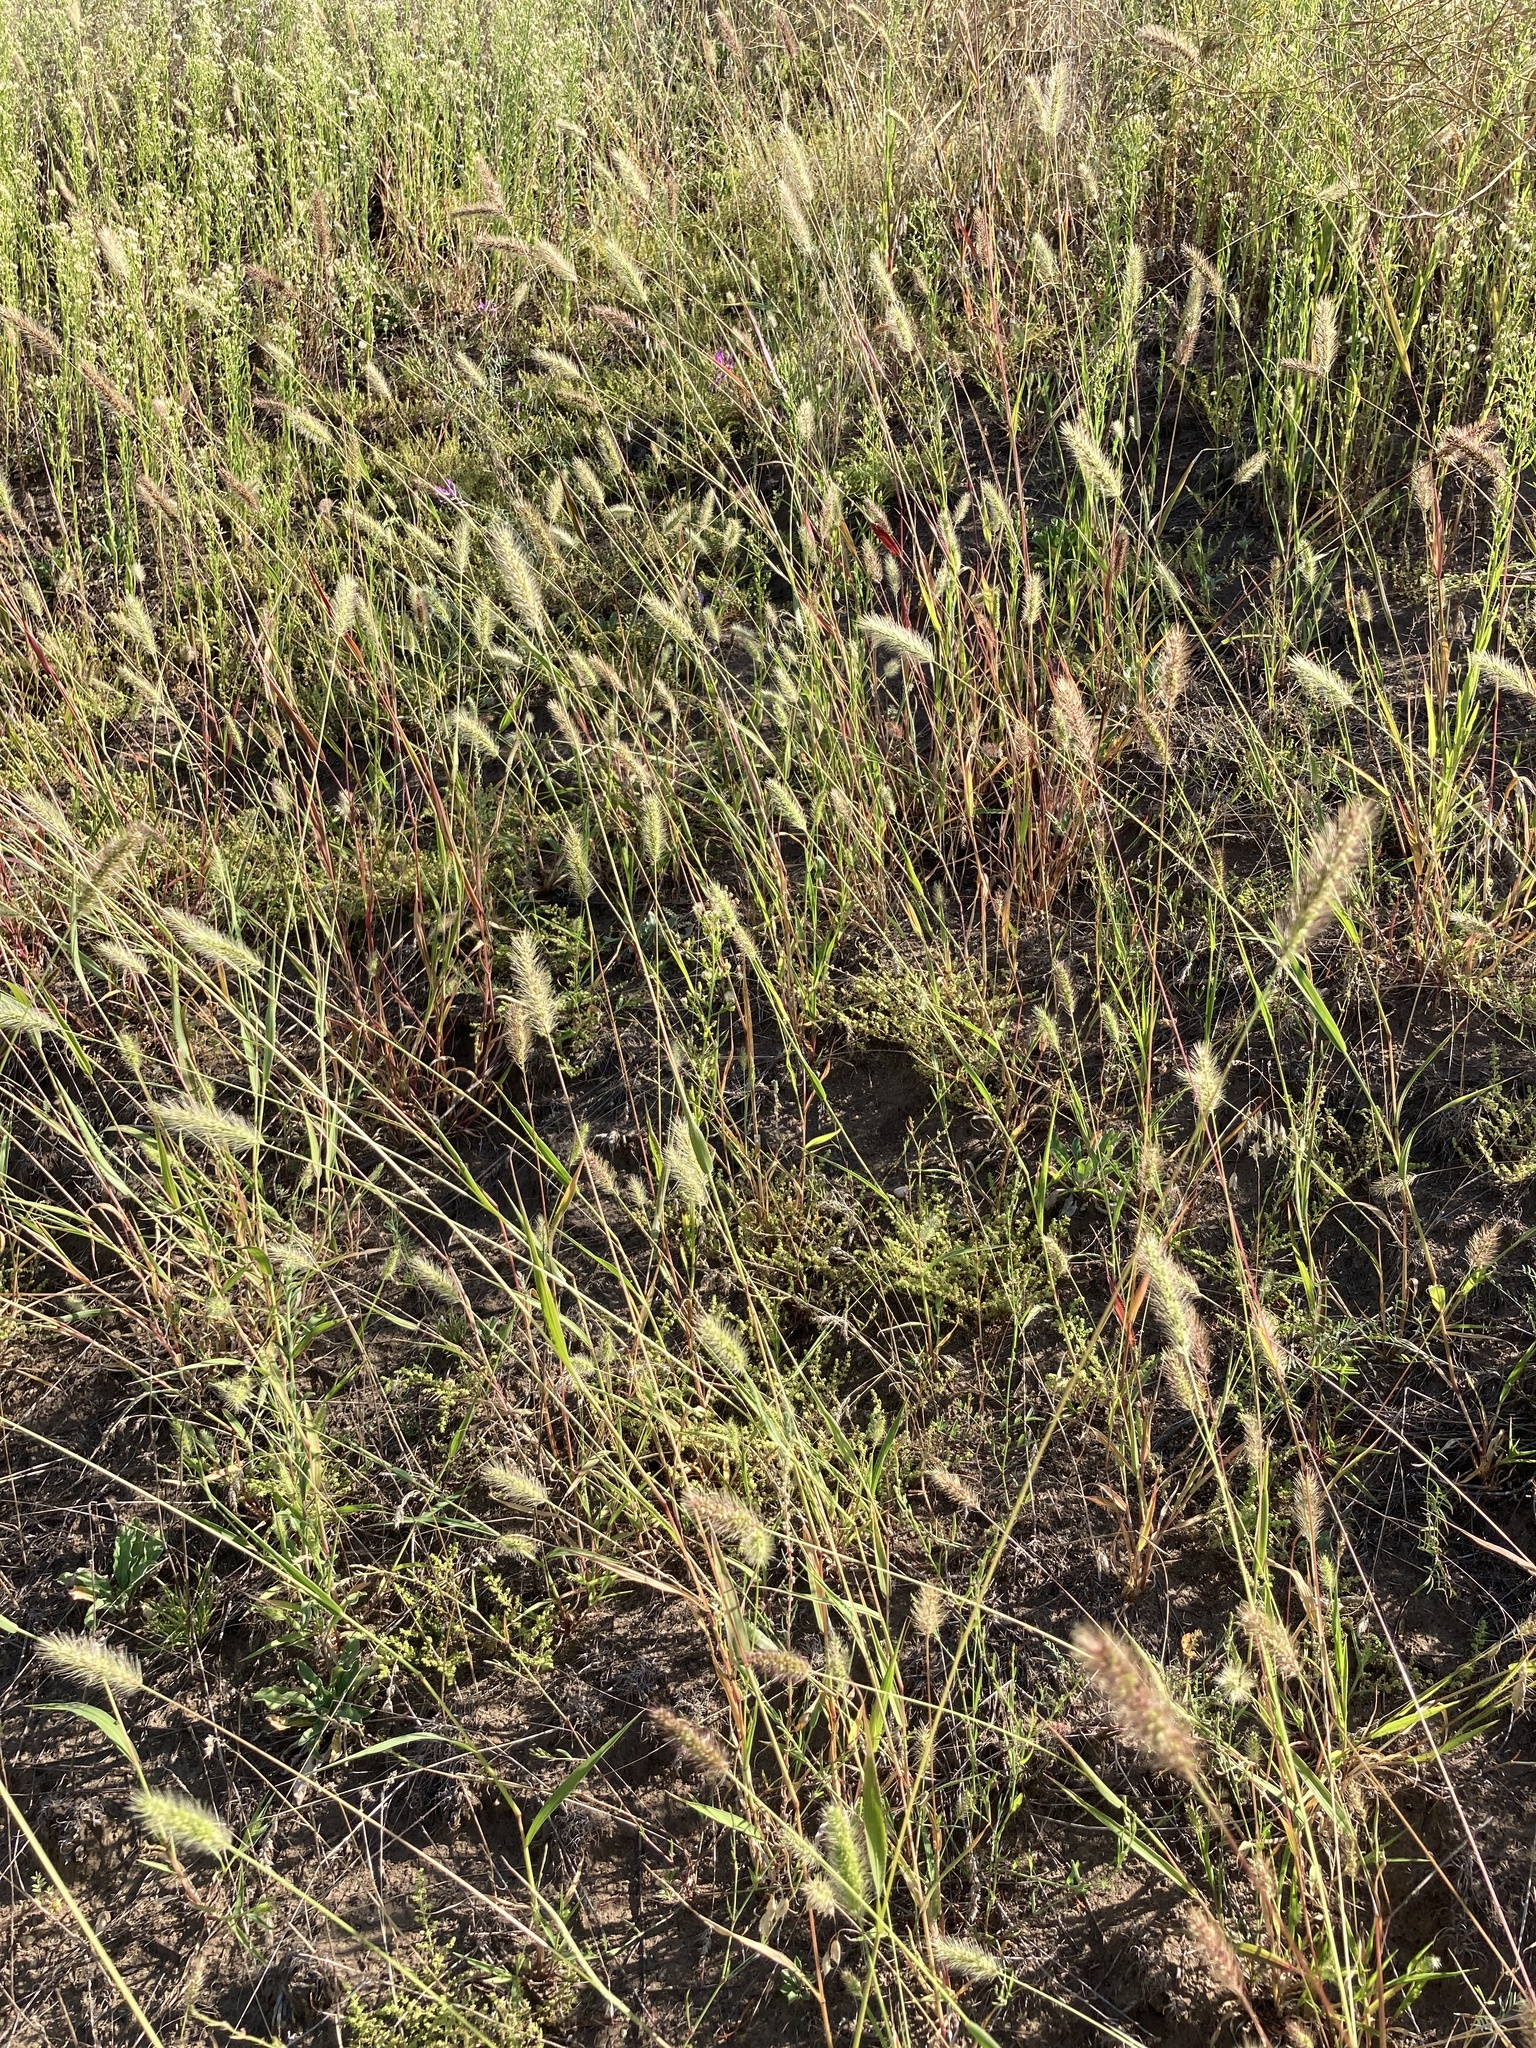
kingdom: Plantae
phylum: Tracheophyta
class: Liliopsida
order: Poales
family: Poaceae
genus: Setaria
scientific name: Setaria viridis
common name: Green bristlegrass
